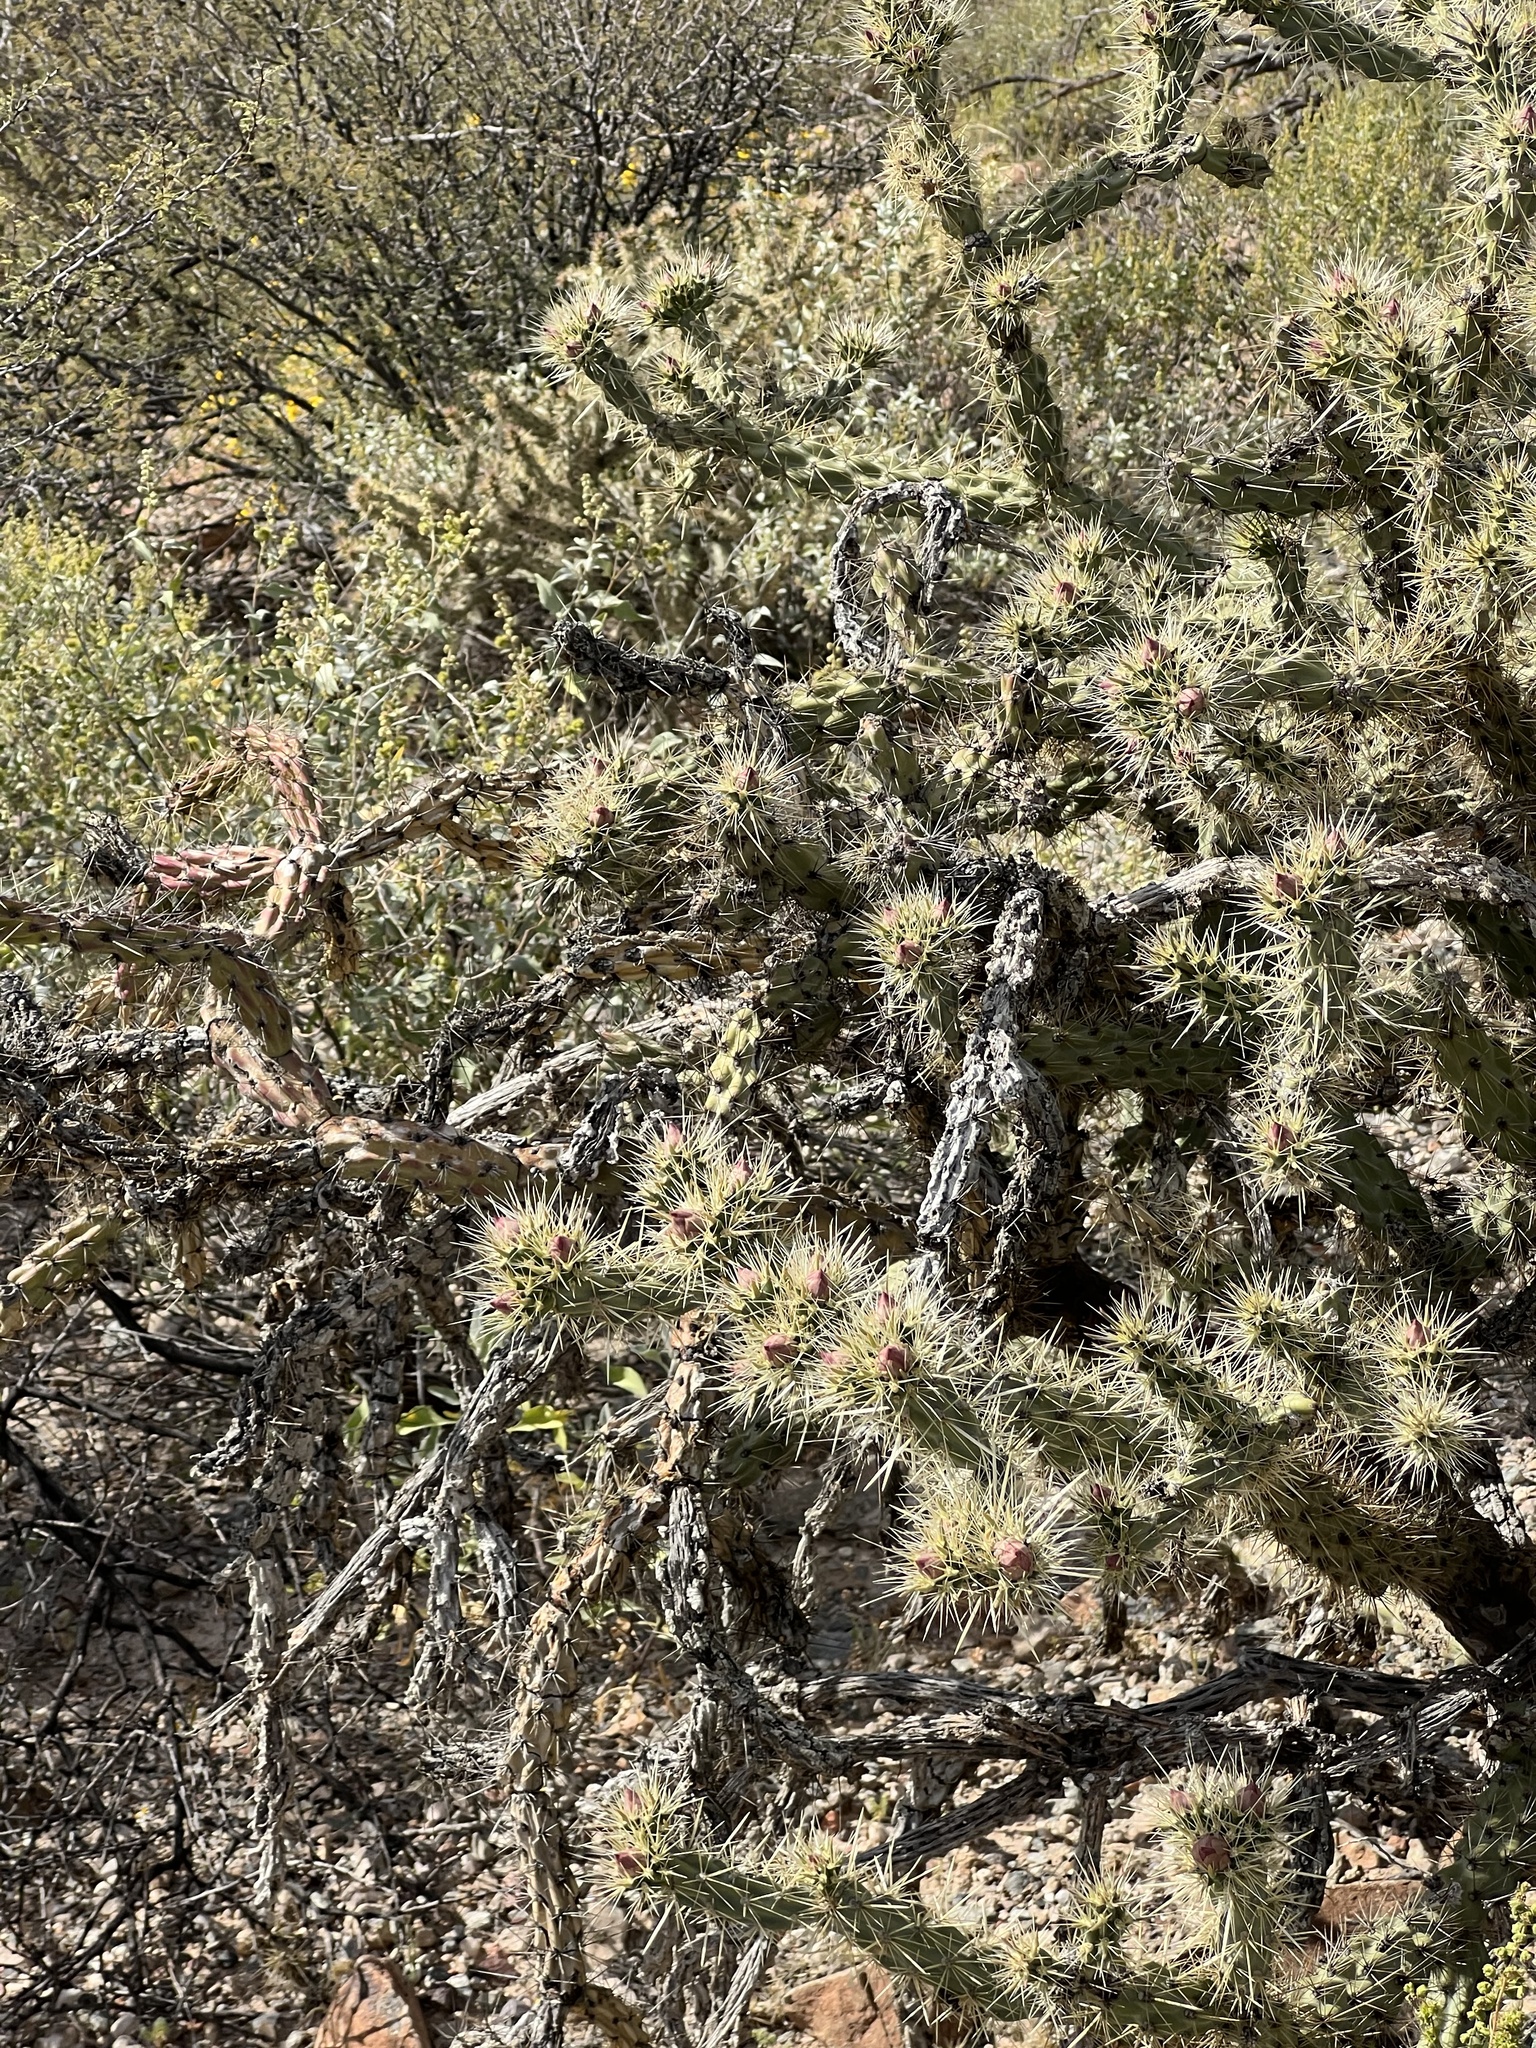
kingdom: Plantae
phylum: Tracheophyta
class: Magnoliopsida
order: Caryophyllales
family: Cactaceae
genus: Cylindropuntia
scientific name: Cylindropuntia acanthocarpa
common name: Buckhorn cholla
